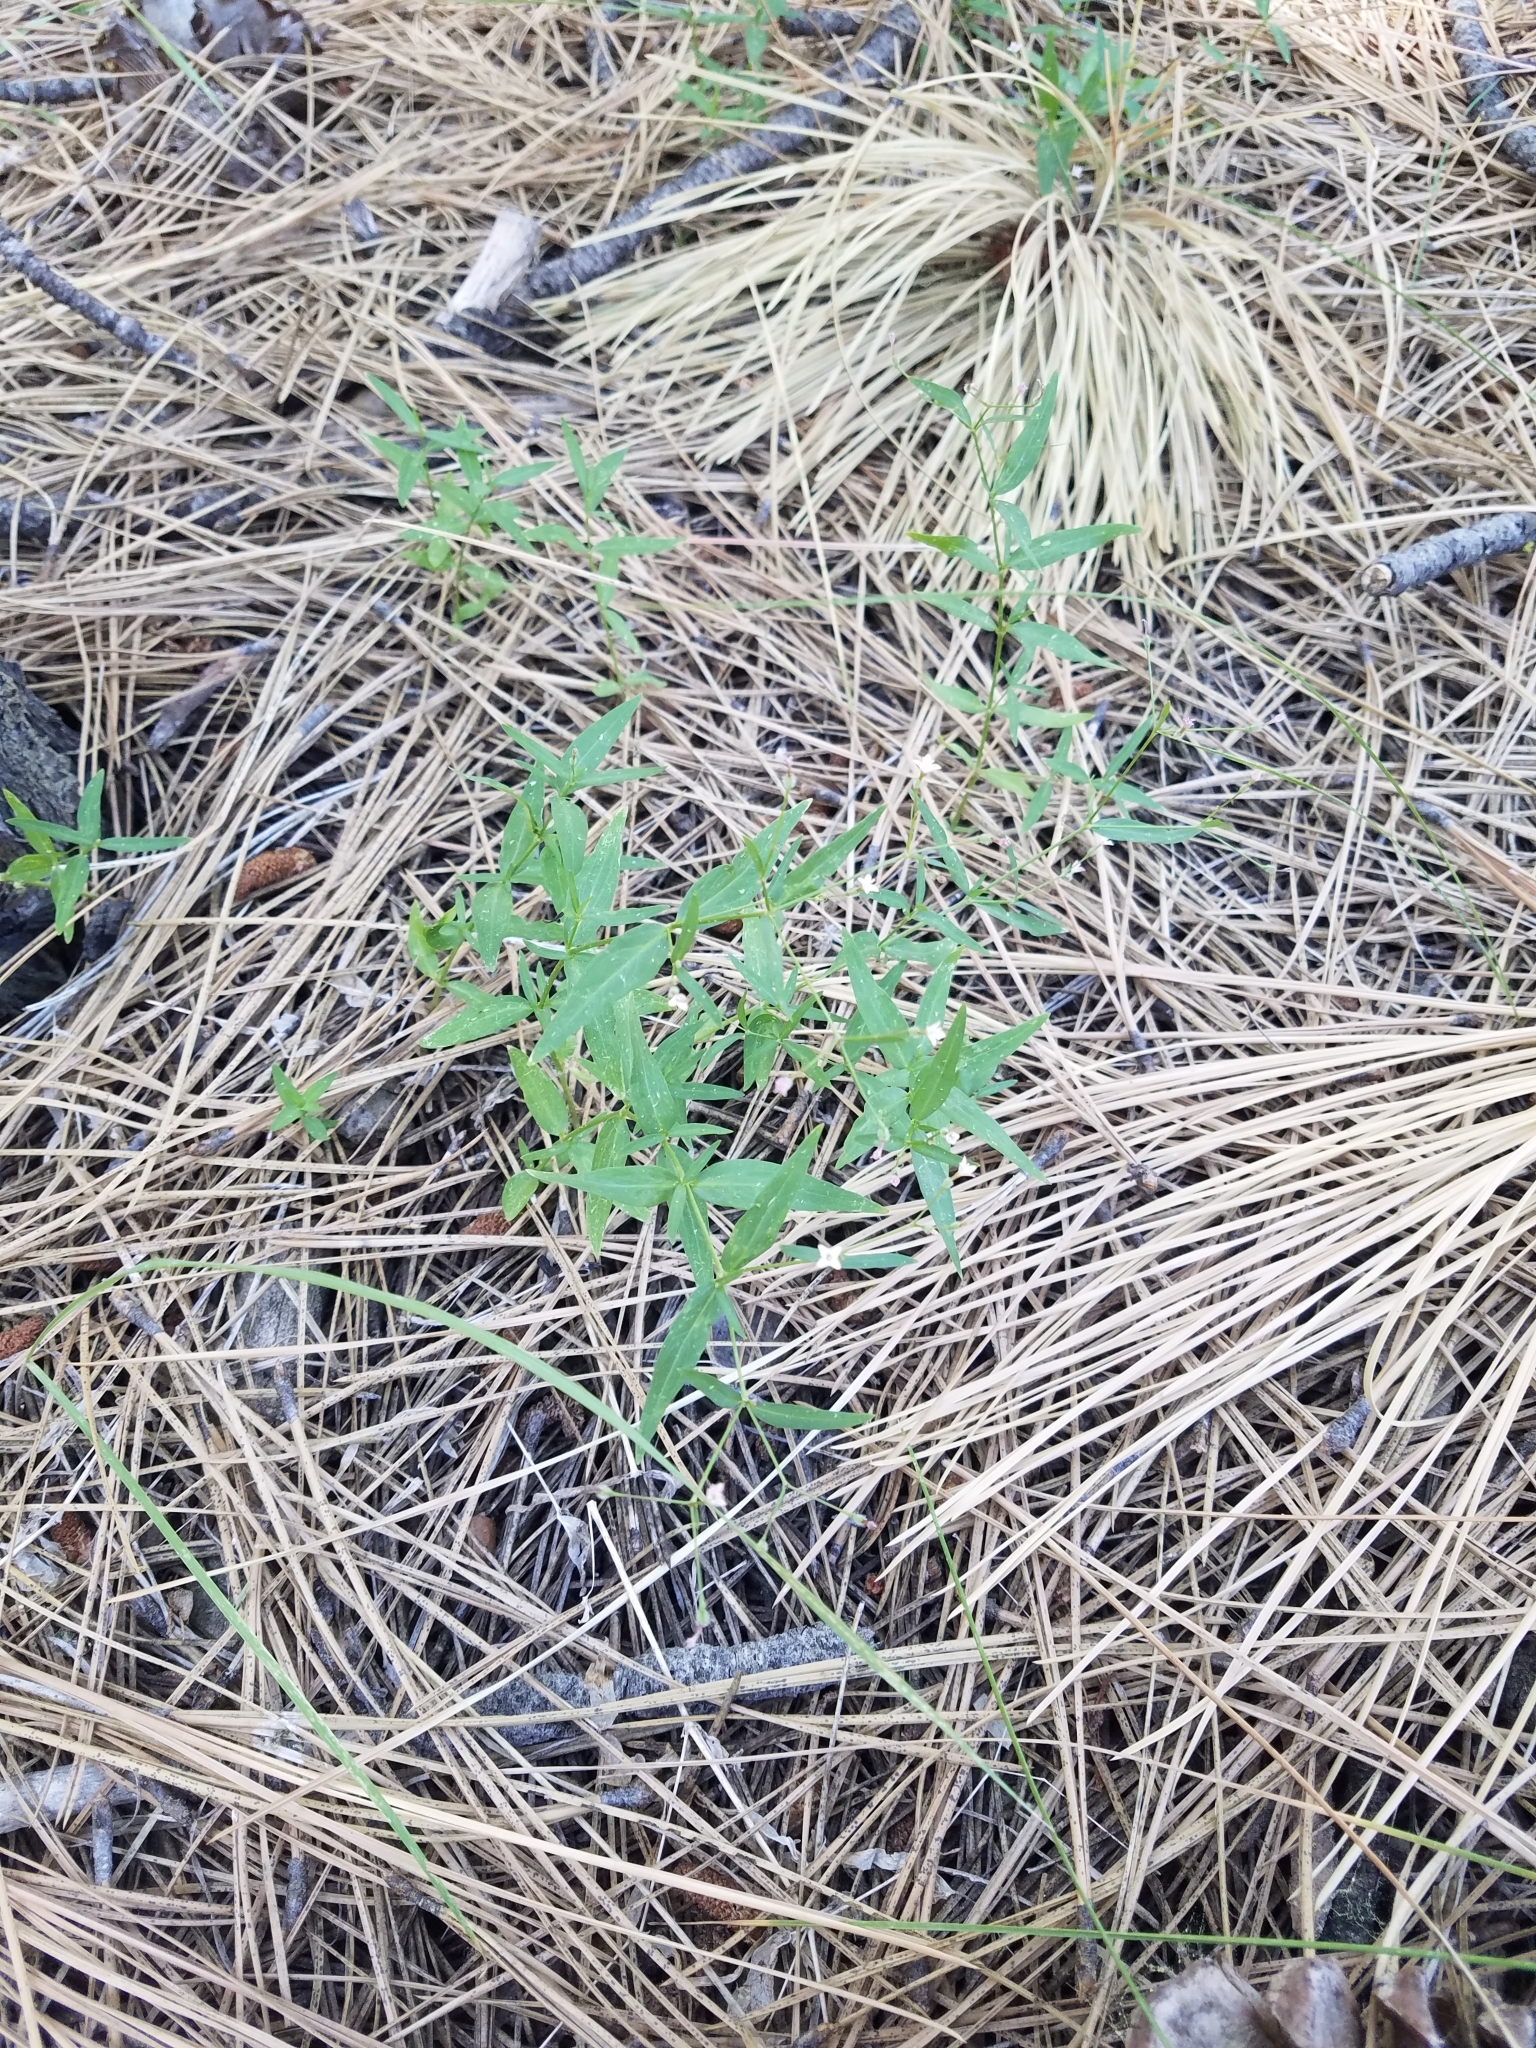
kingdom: Plantae
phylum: Tracheophyta
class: Magnoliopsida
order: Gentianales
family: Rubiaceae
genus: Kelloggia
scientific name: Kelloggia galioides
